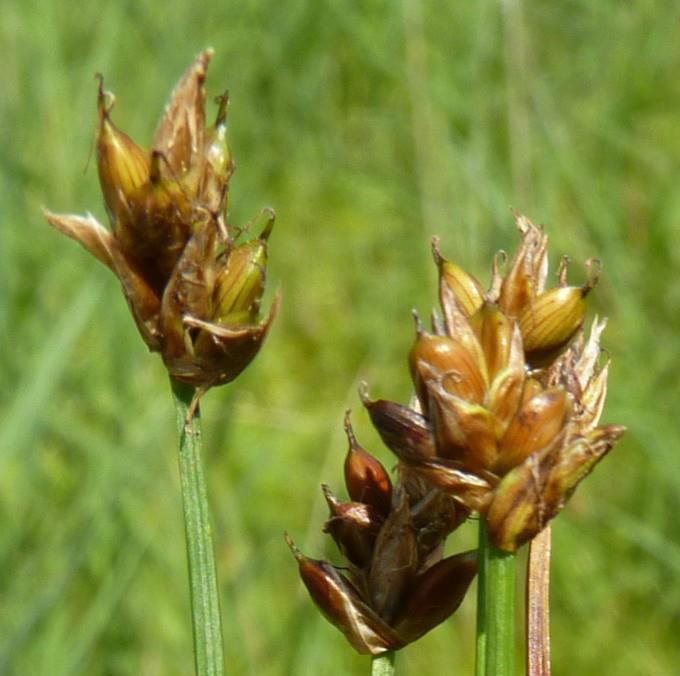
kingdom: Plantae
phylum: Tracheophyta
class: Liliopsida
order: Poales
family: Cyperaceae
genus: Carex
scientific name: Carex chordorrhiza
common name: String sedge
